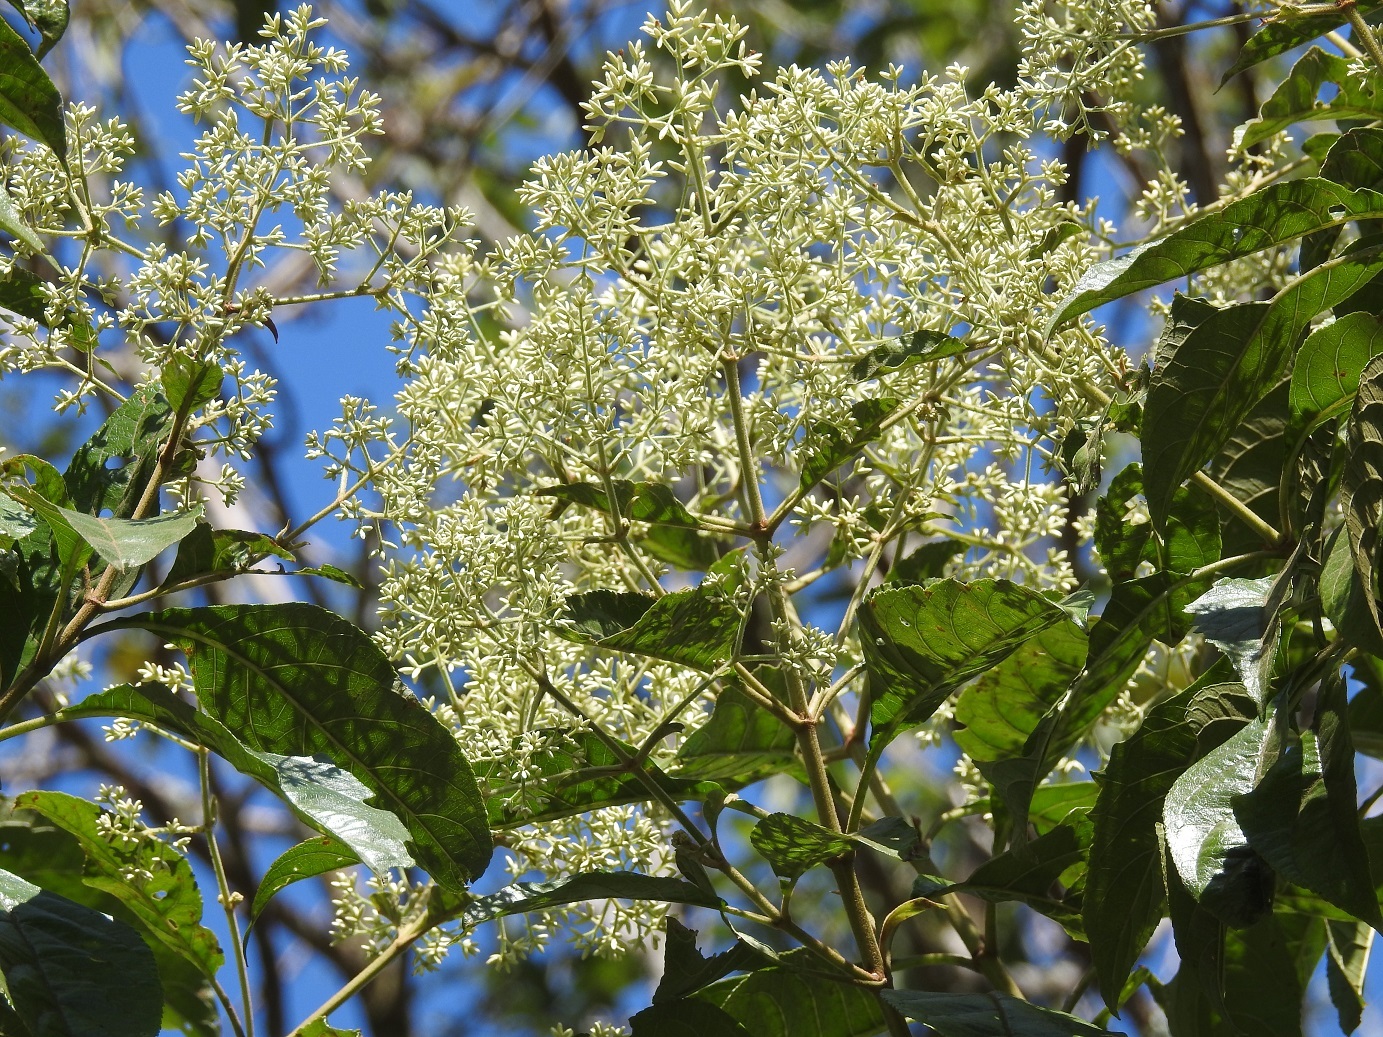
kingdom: Plantae
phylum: Tracheophyta
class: Magnoliopsida
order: Asterales
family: Asteraceae
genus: Critonia
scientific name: Critonia morifolia
